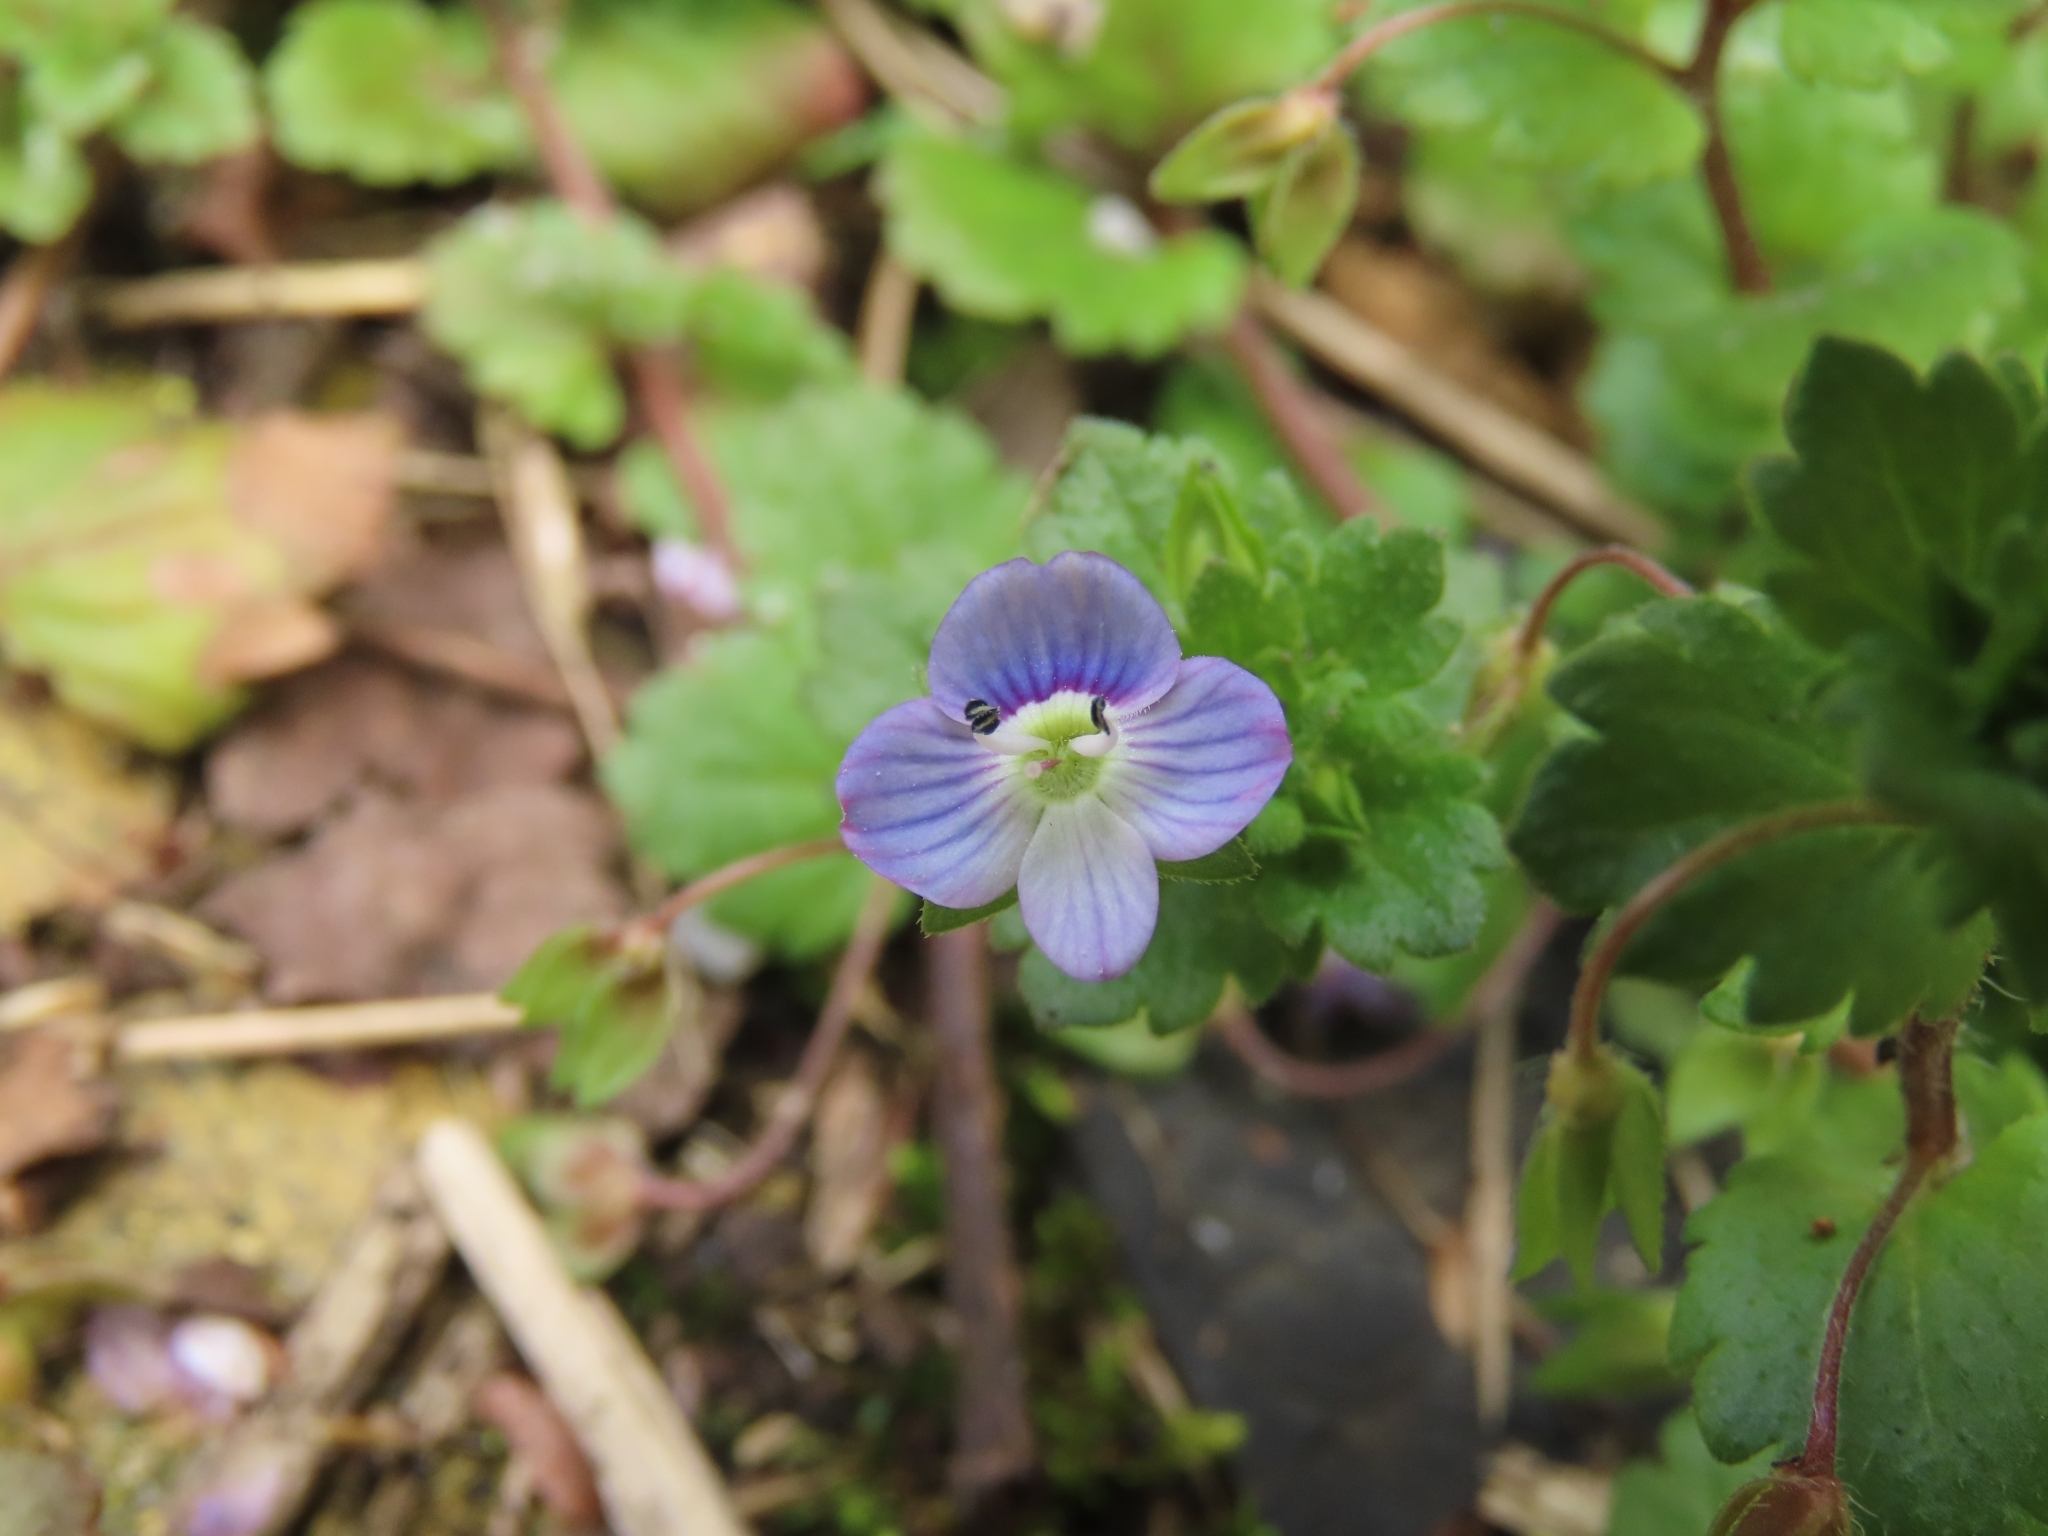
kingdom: Plantae
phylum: Tracheophyta
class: Magnoliopsida
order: Lamiales
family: Plantaginaceae
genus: Veronica
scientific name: Veronica persica
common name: Common field-speedwell
